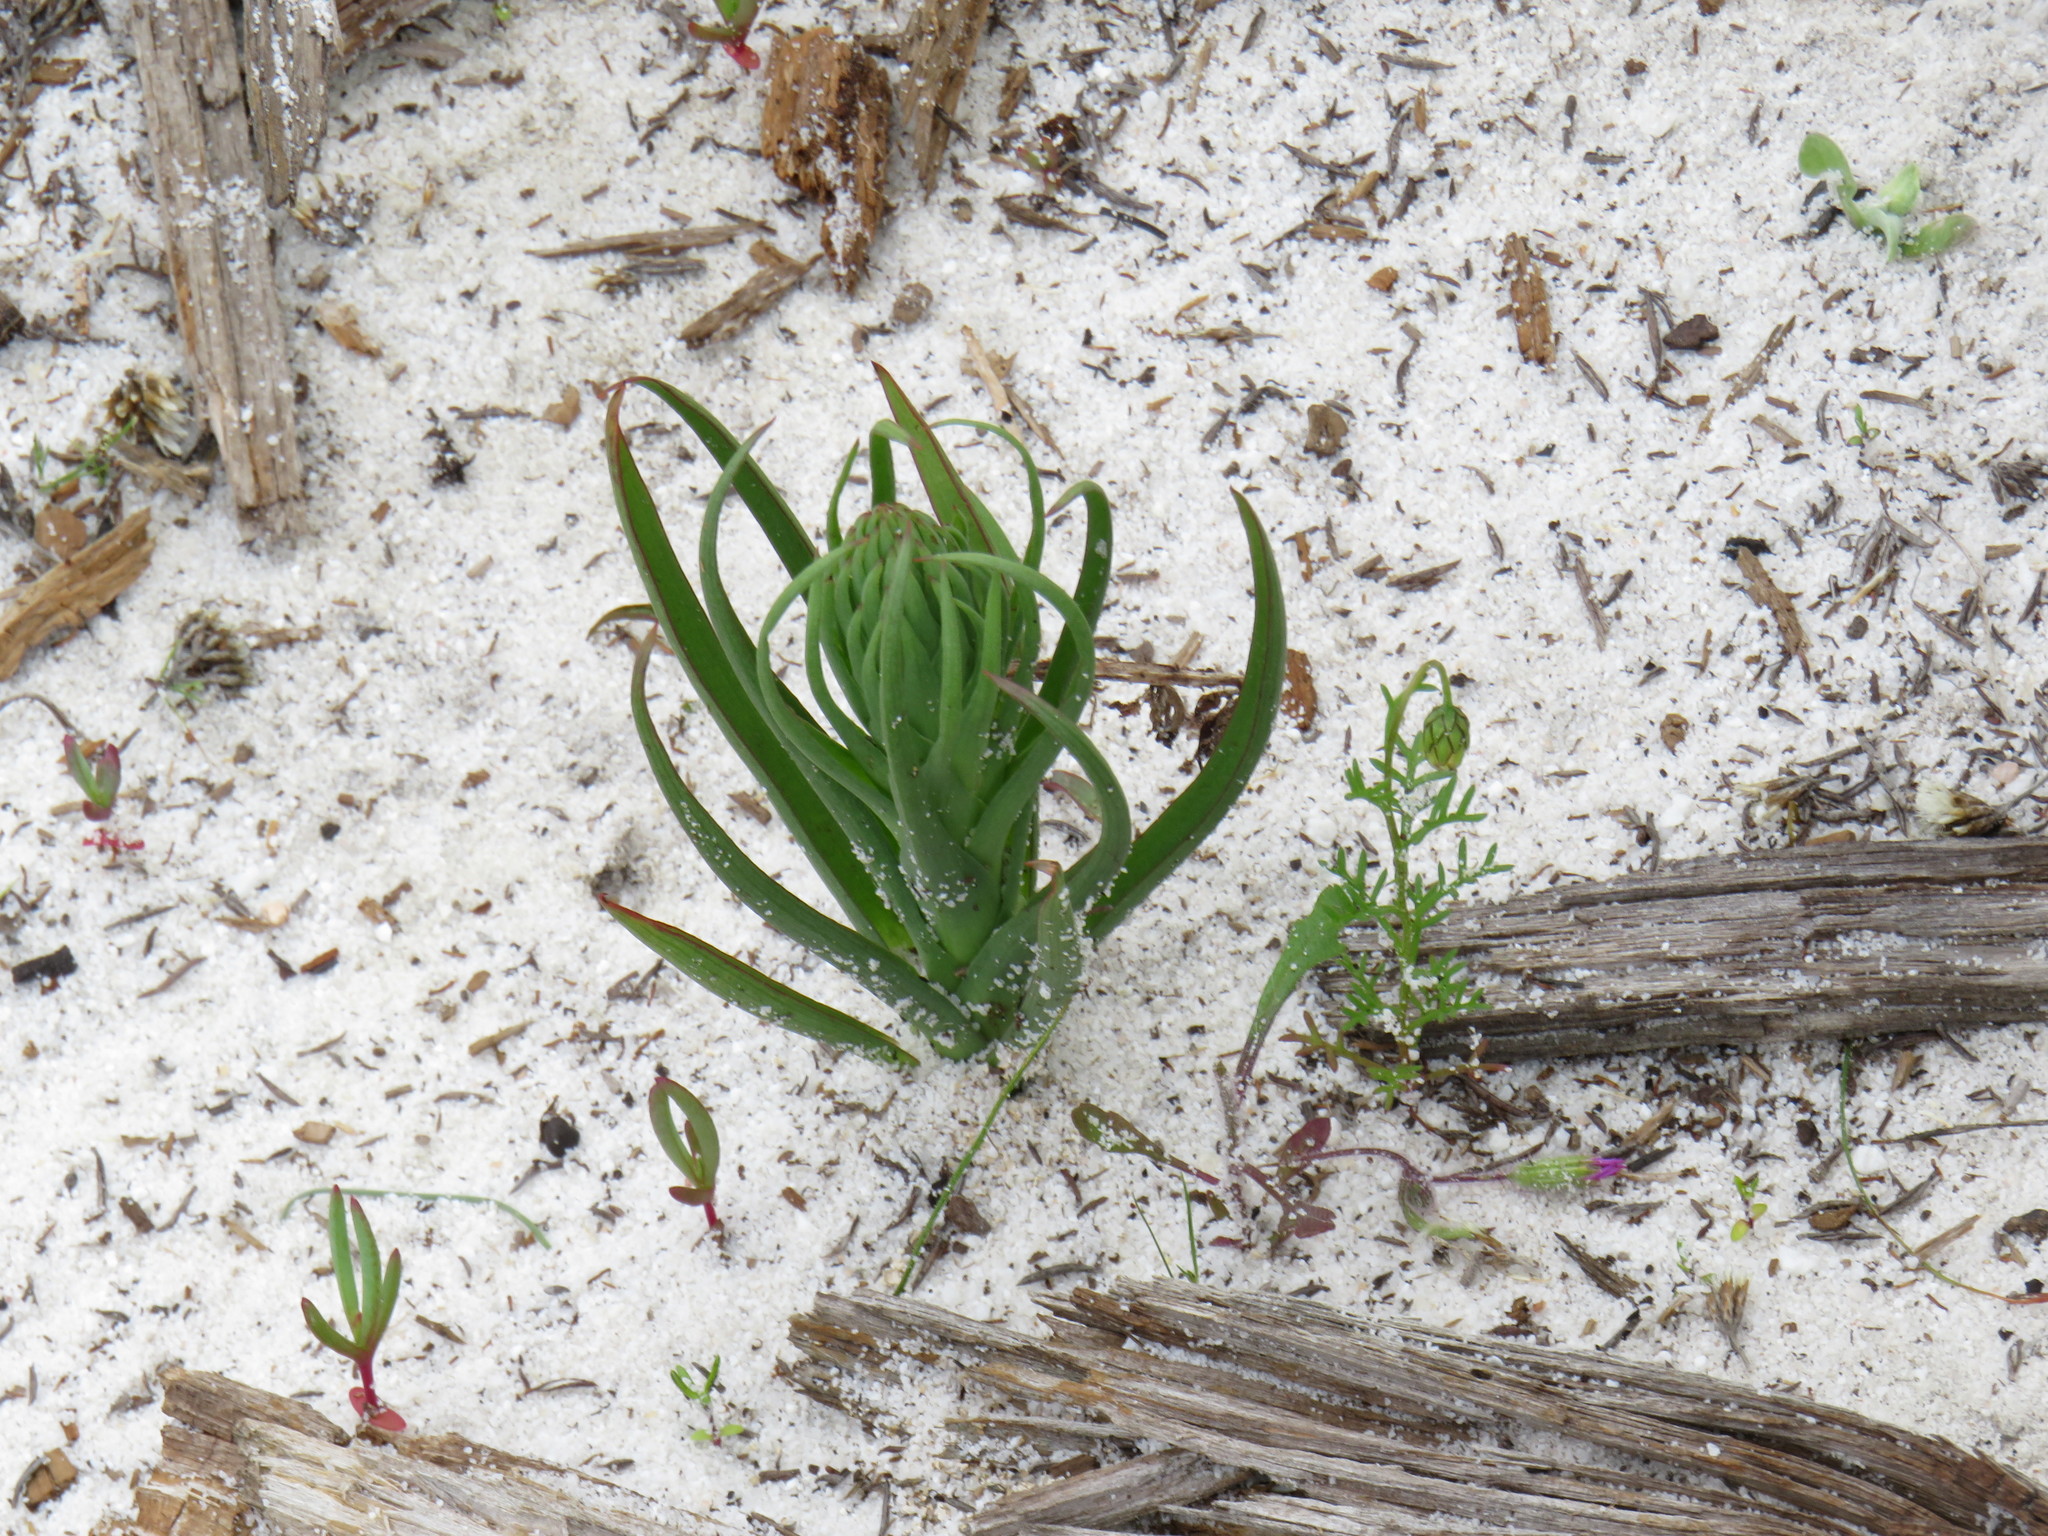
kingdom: Plantae
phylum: Tracheophyta
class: Liliopsida
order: Asparagales
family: Orchidaceae
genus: Disa
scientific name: Disa bracteata
